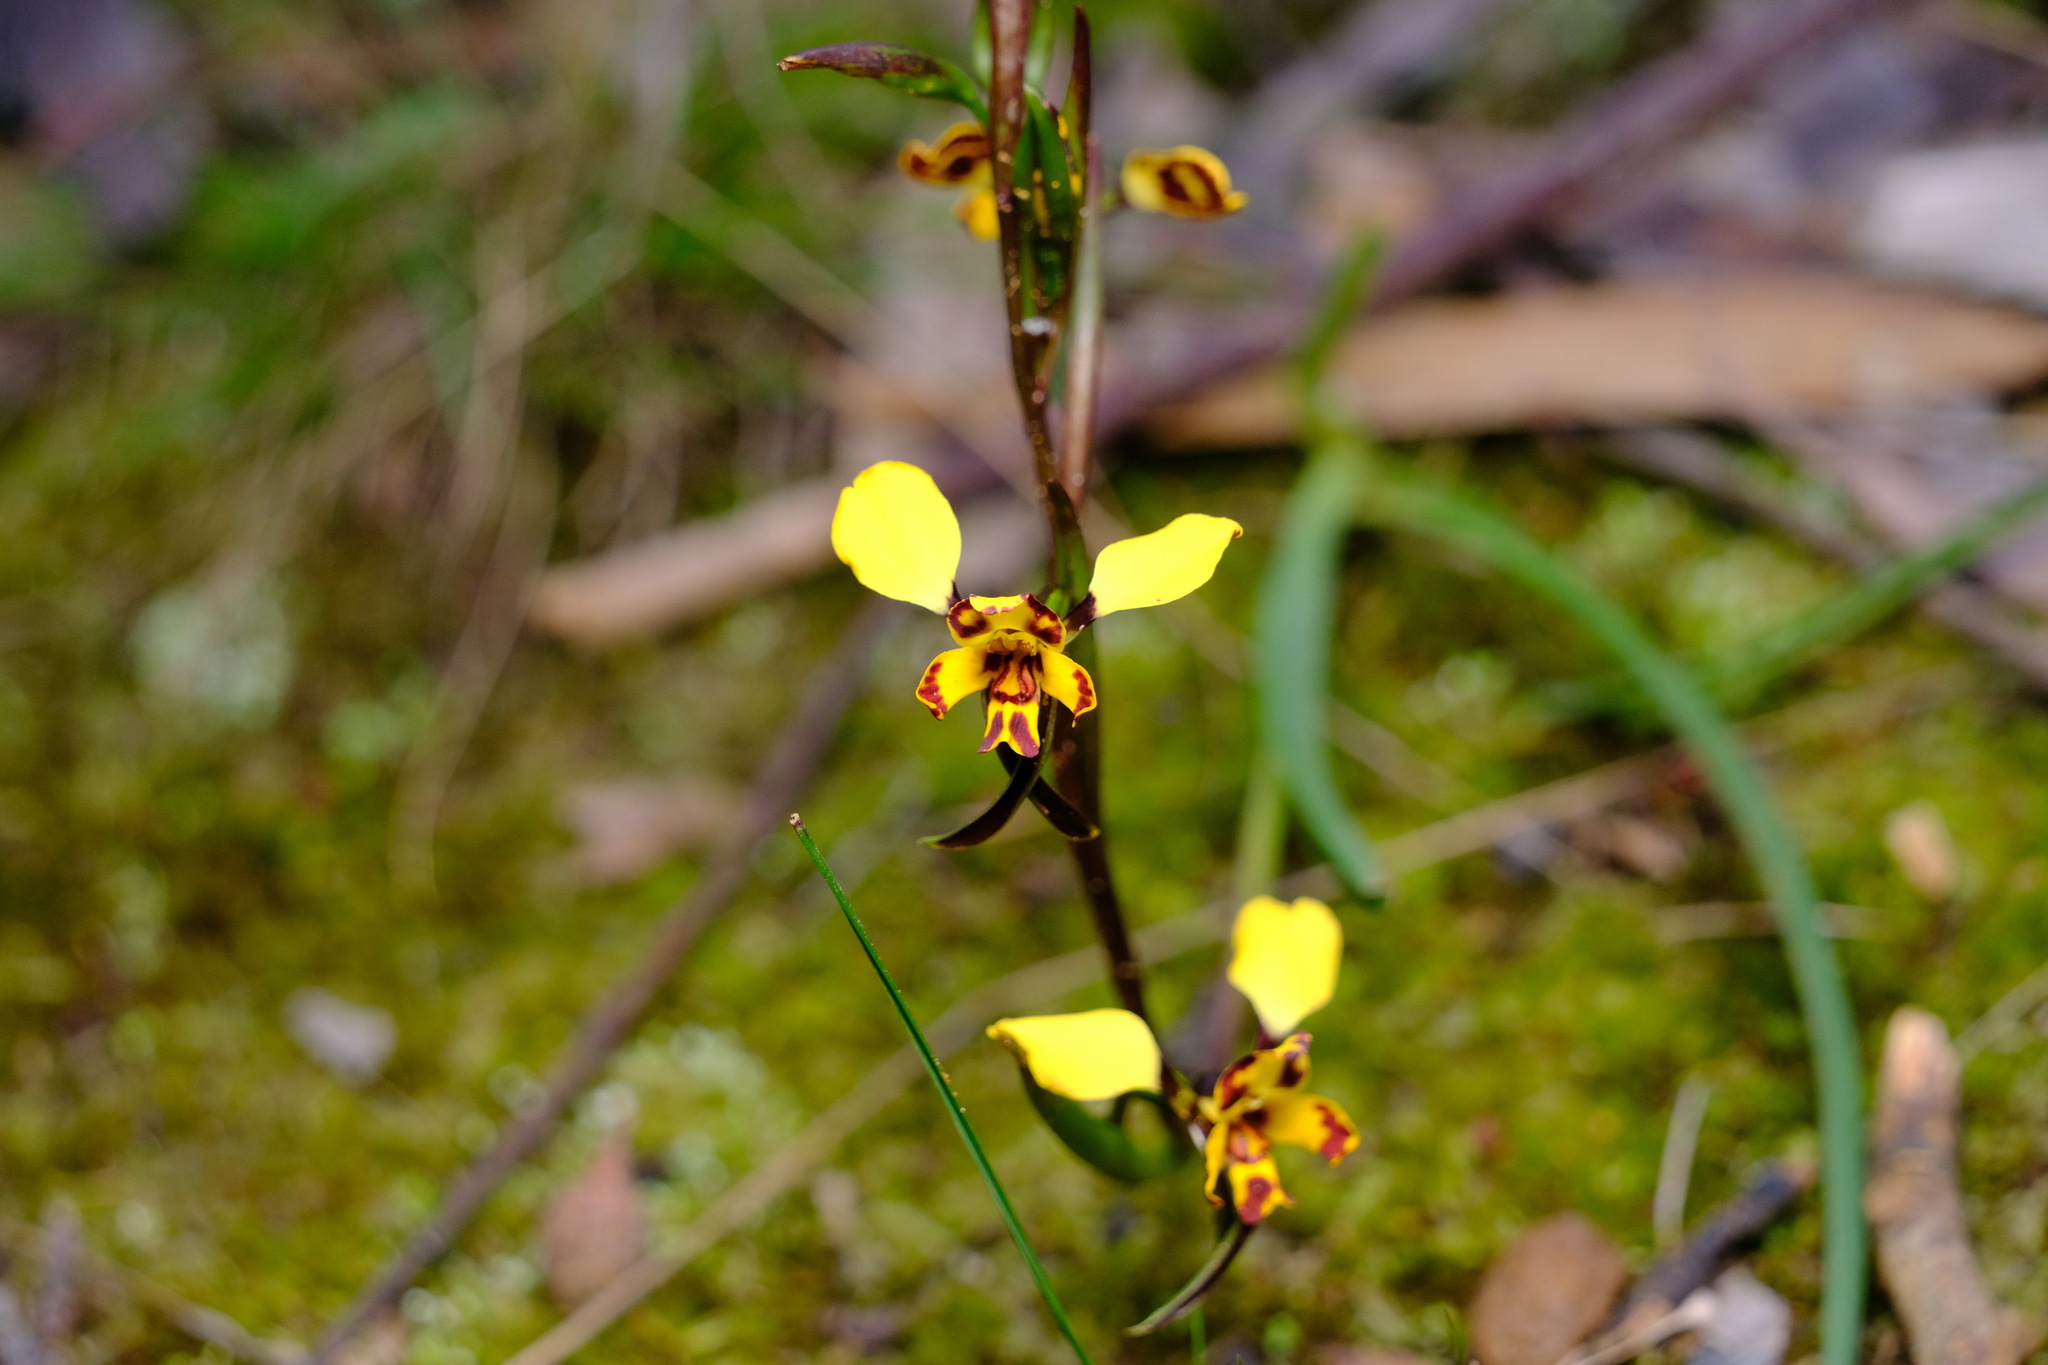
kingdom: Plantae
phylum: Tracheophyta
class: Liliopsida
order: Asparagales
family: Orchidaceae
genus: Diuris
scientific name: Diuris pardina
